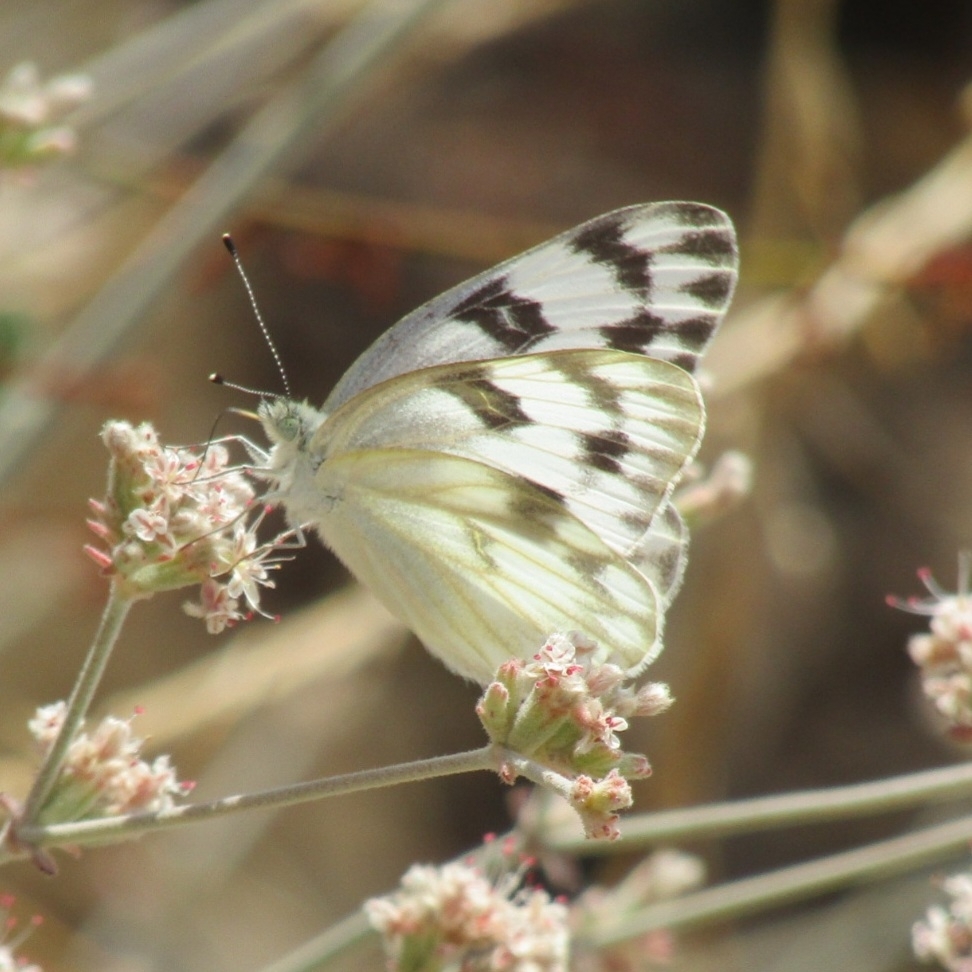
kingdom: Animalia
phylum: Arthropoda
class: Insecta
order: Lepidoptera
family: Pieridae
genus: Pontia
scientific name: Pontia protodice
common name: Checkered white
